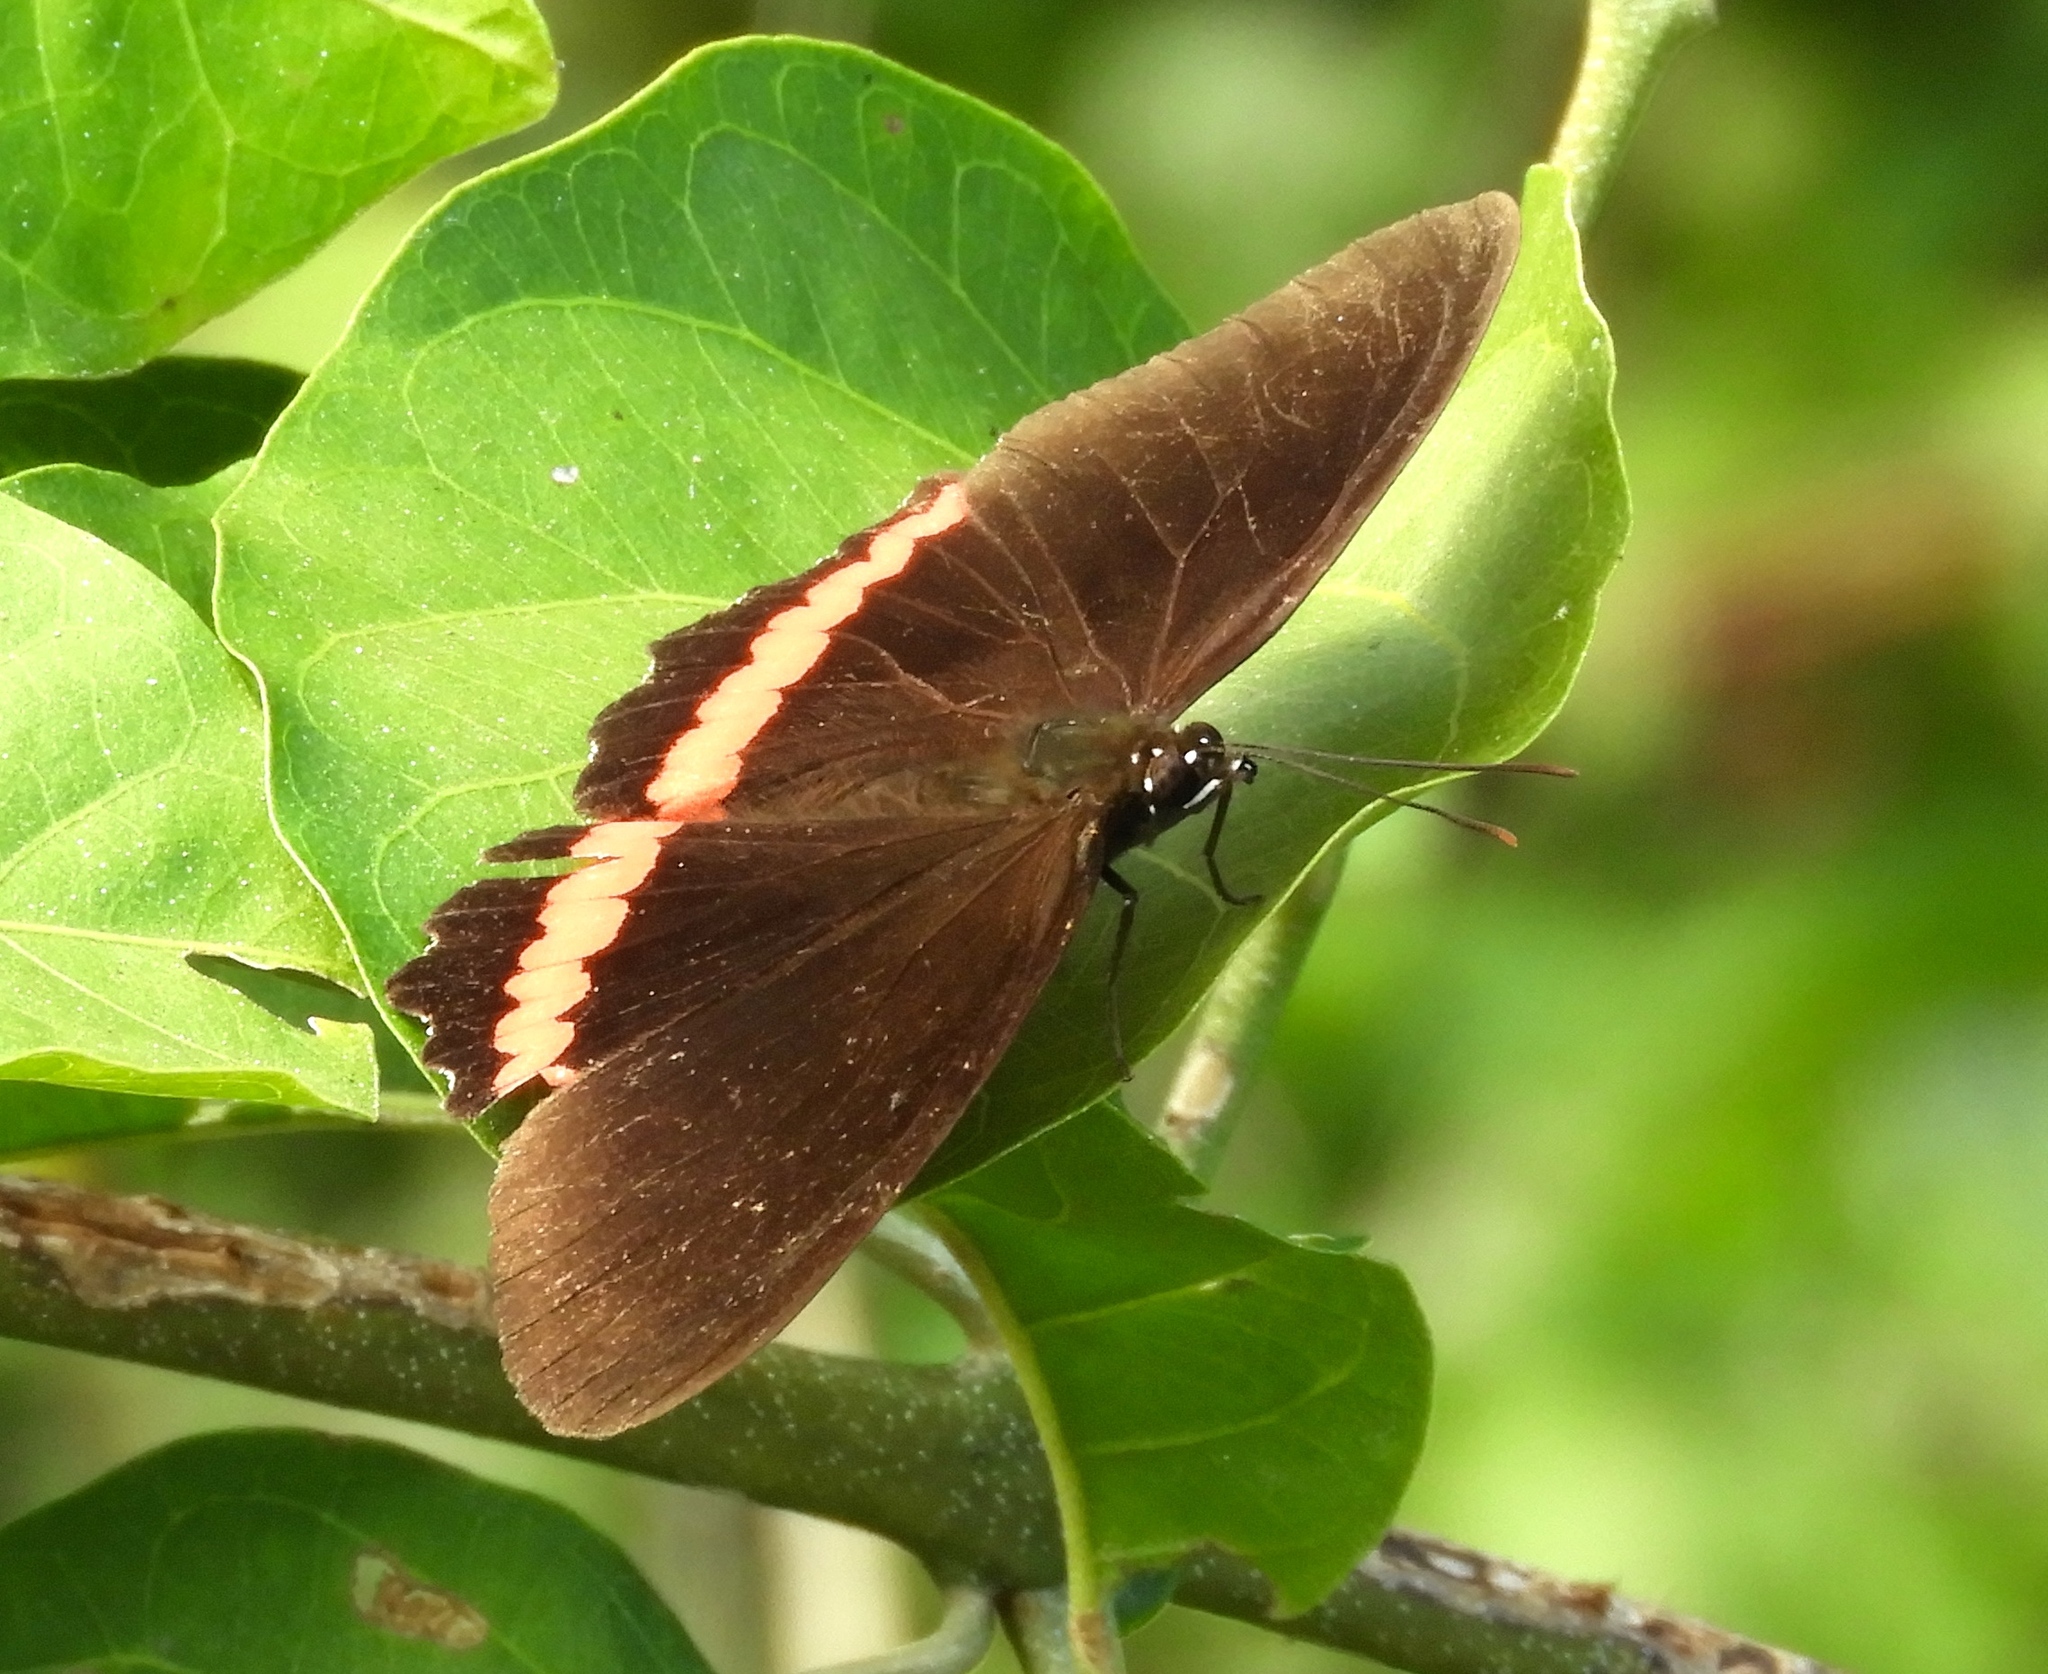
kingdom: Animalia
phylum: Arthropoda
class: Insecta
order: Lepidoptera
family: Nymphalidae
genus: Biblis
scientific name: Biblis aganisa
